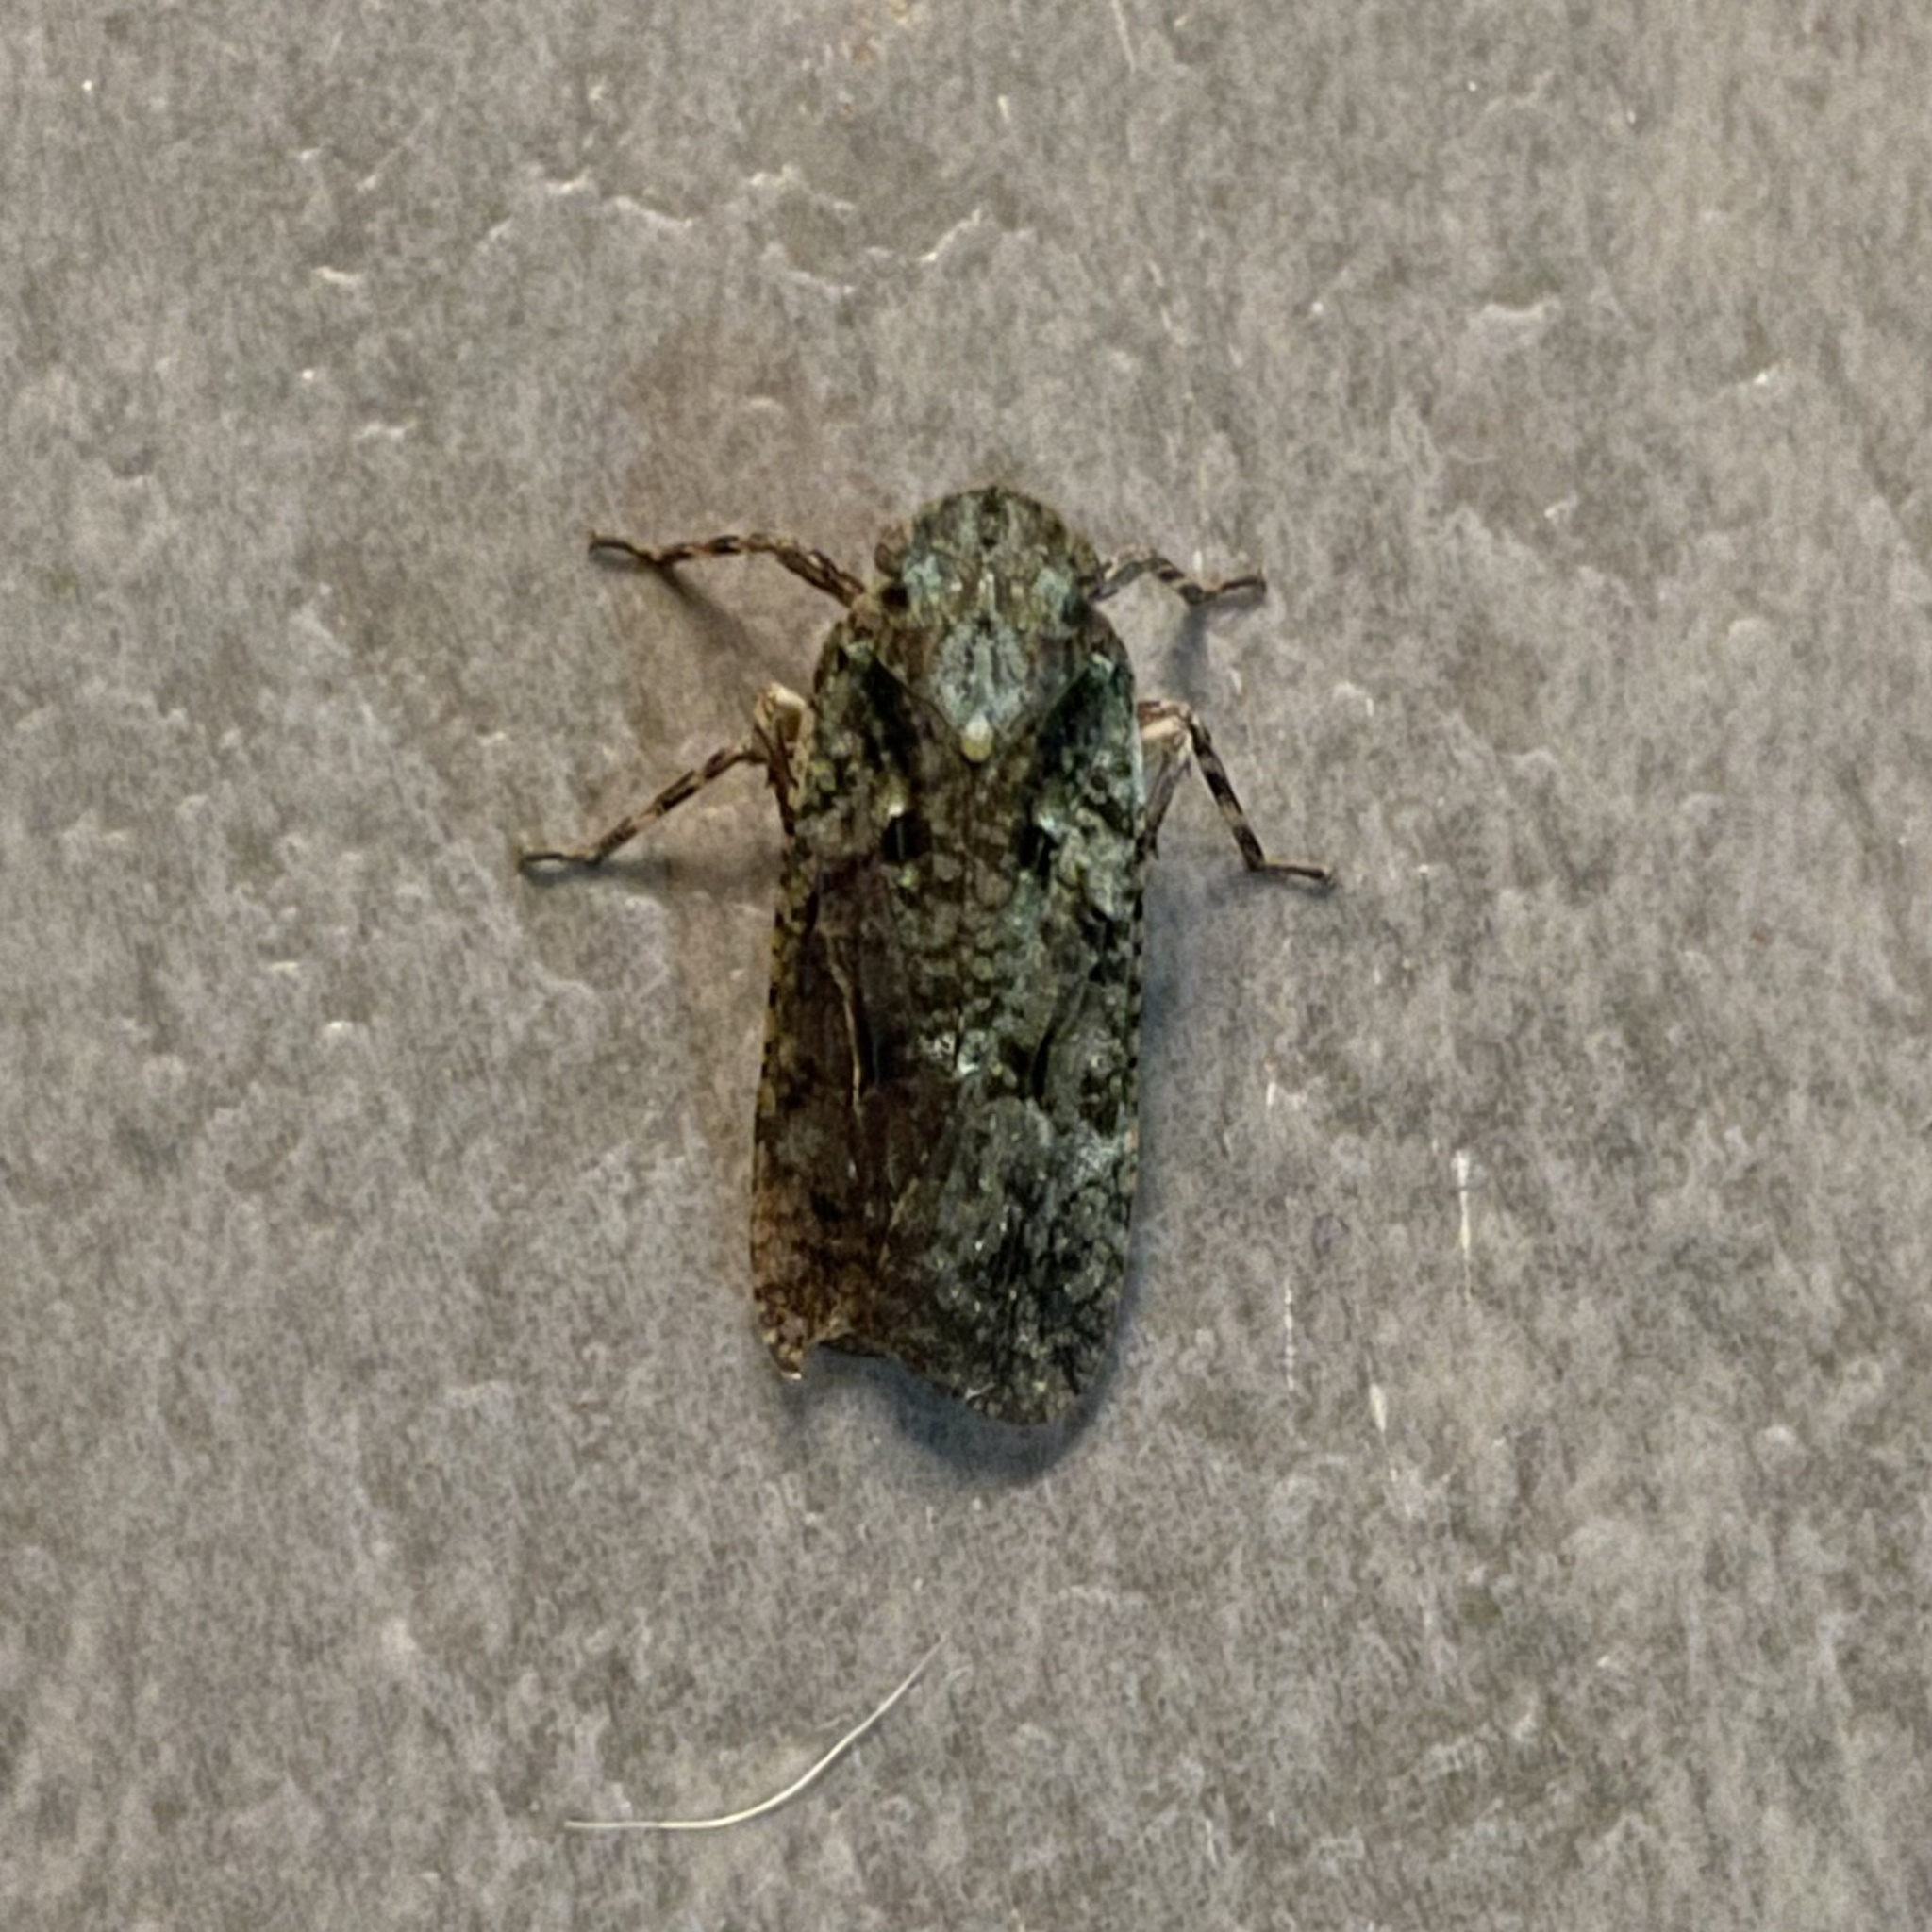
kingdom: Animalia
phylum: Arthropoda
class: Insecta
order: Hemiptera
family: Fulgoridae
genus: Cyrpoptus
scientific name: Cyrpoptus obscurus
